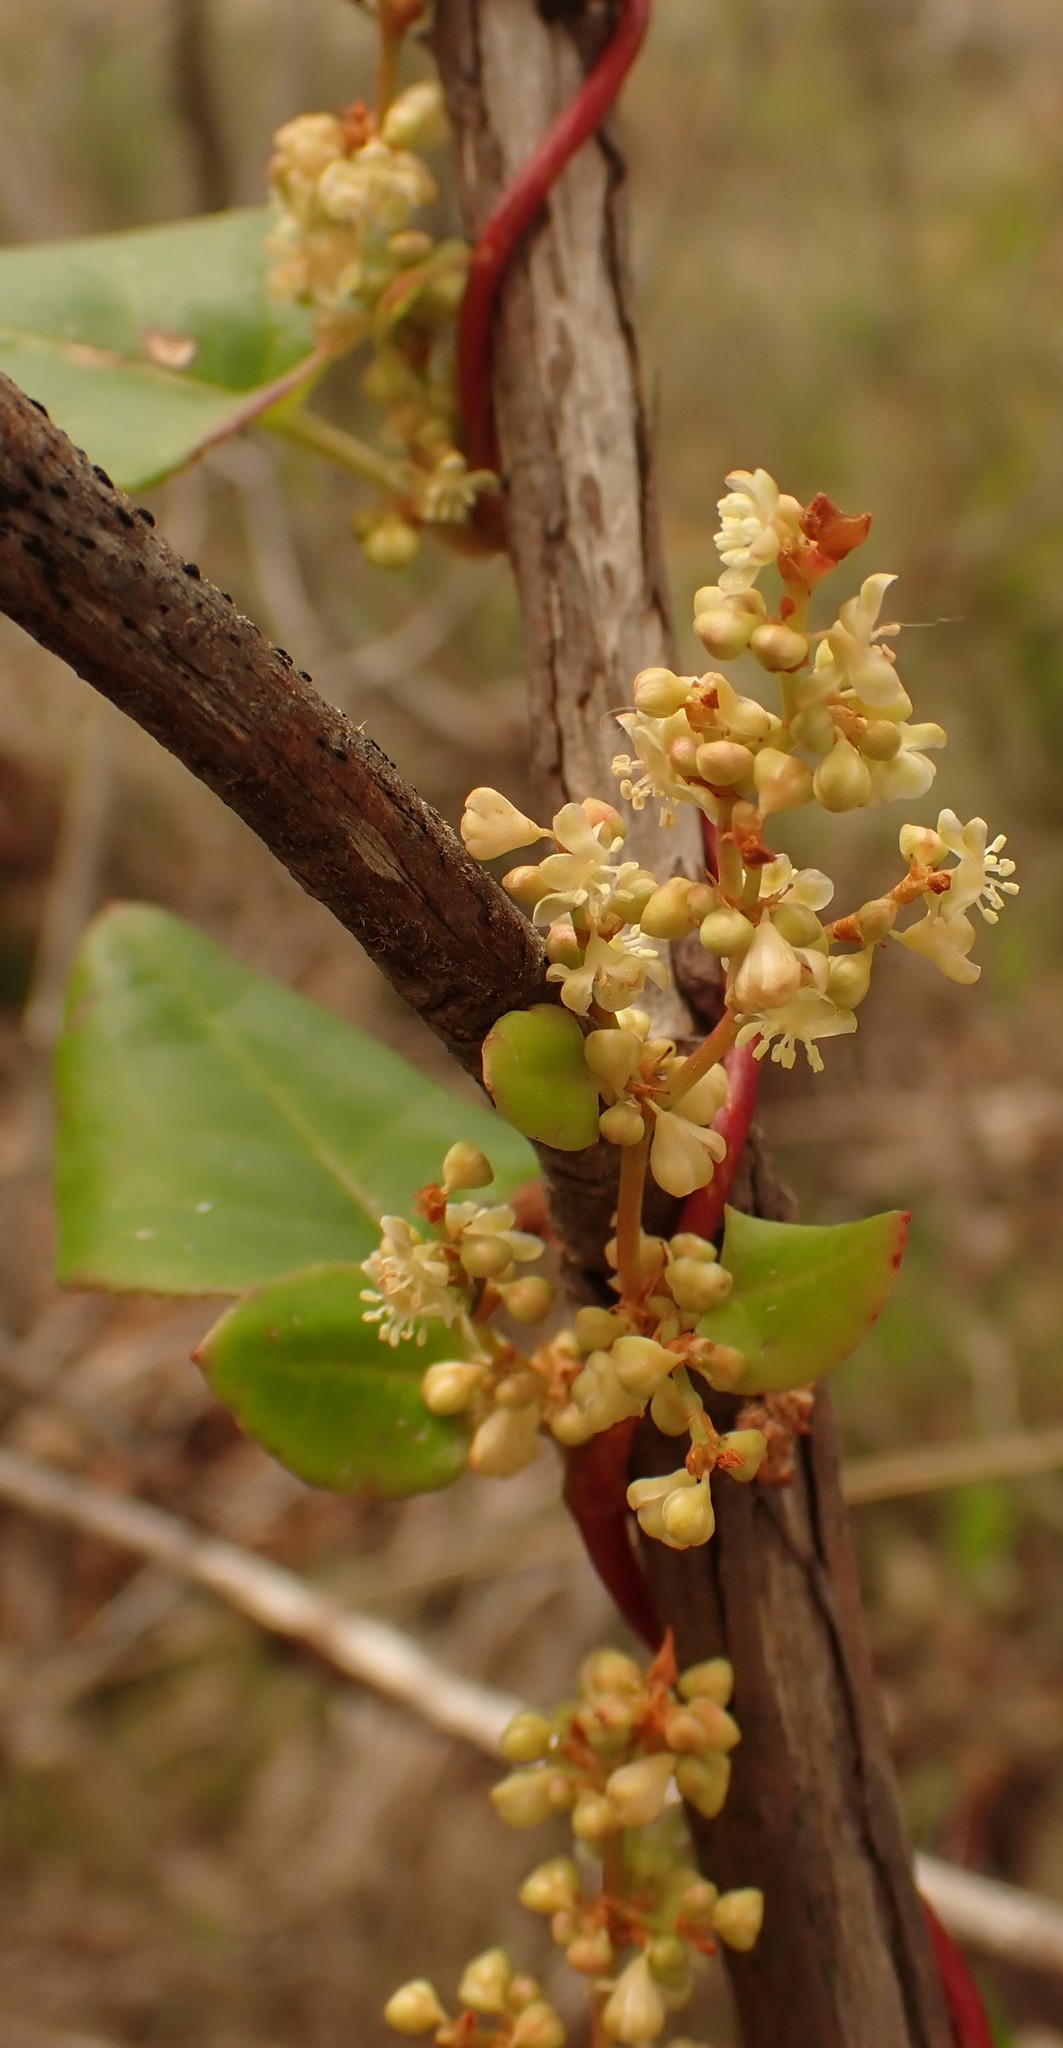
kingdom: Plantae
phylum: Tracheophyta
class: Magnoliopsida
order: Caryophyllales
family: Polygonaceae
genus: Muehlenbeckia
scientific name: Muehlenbeckia adpressa
